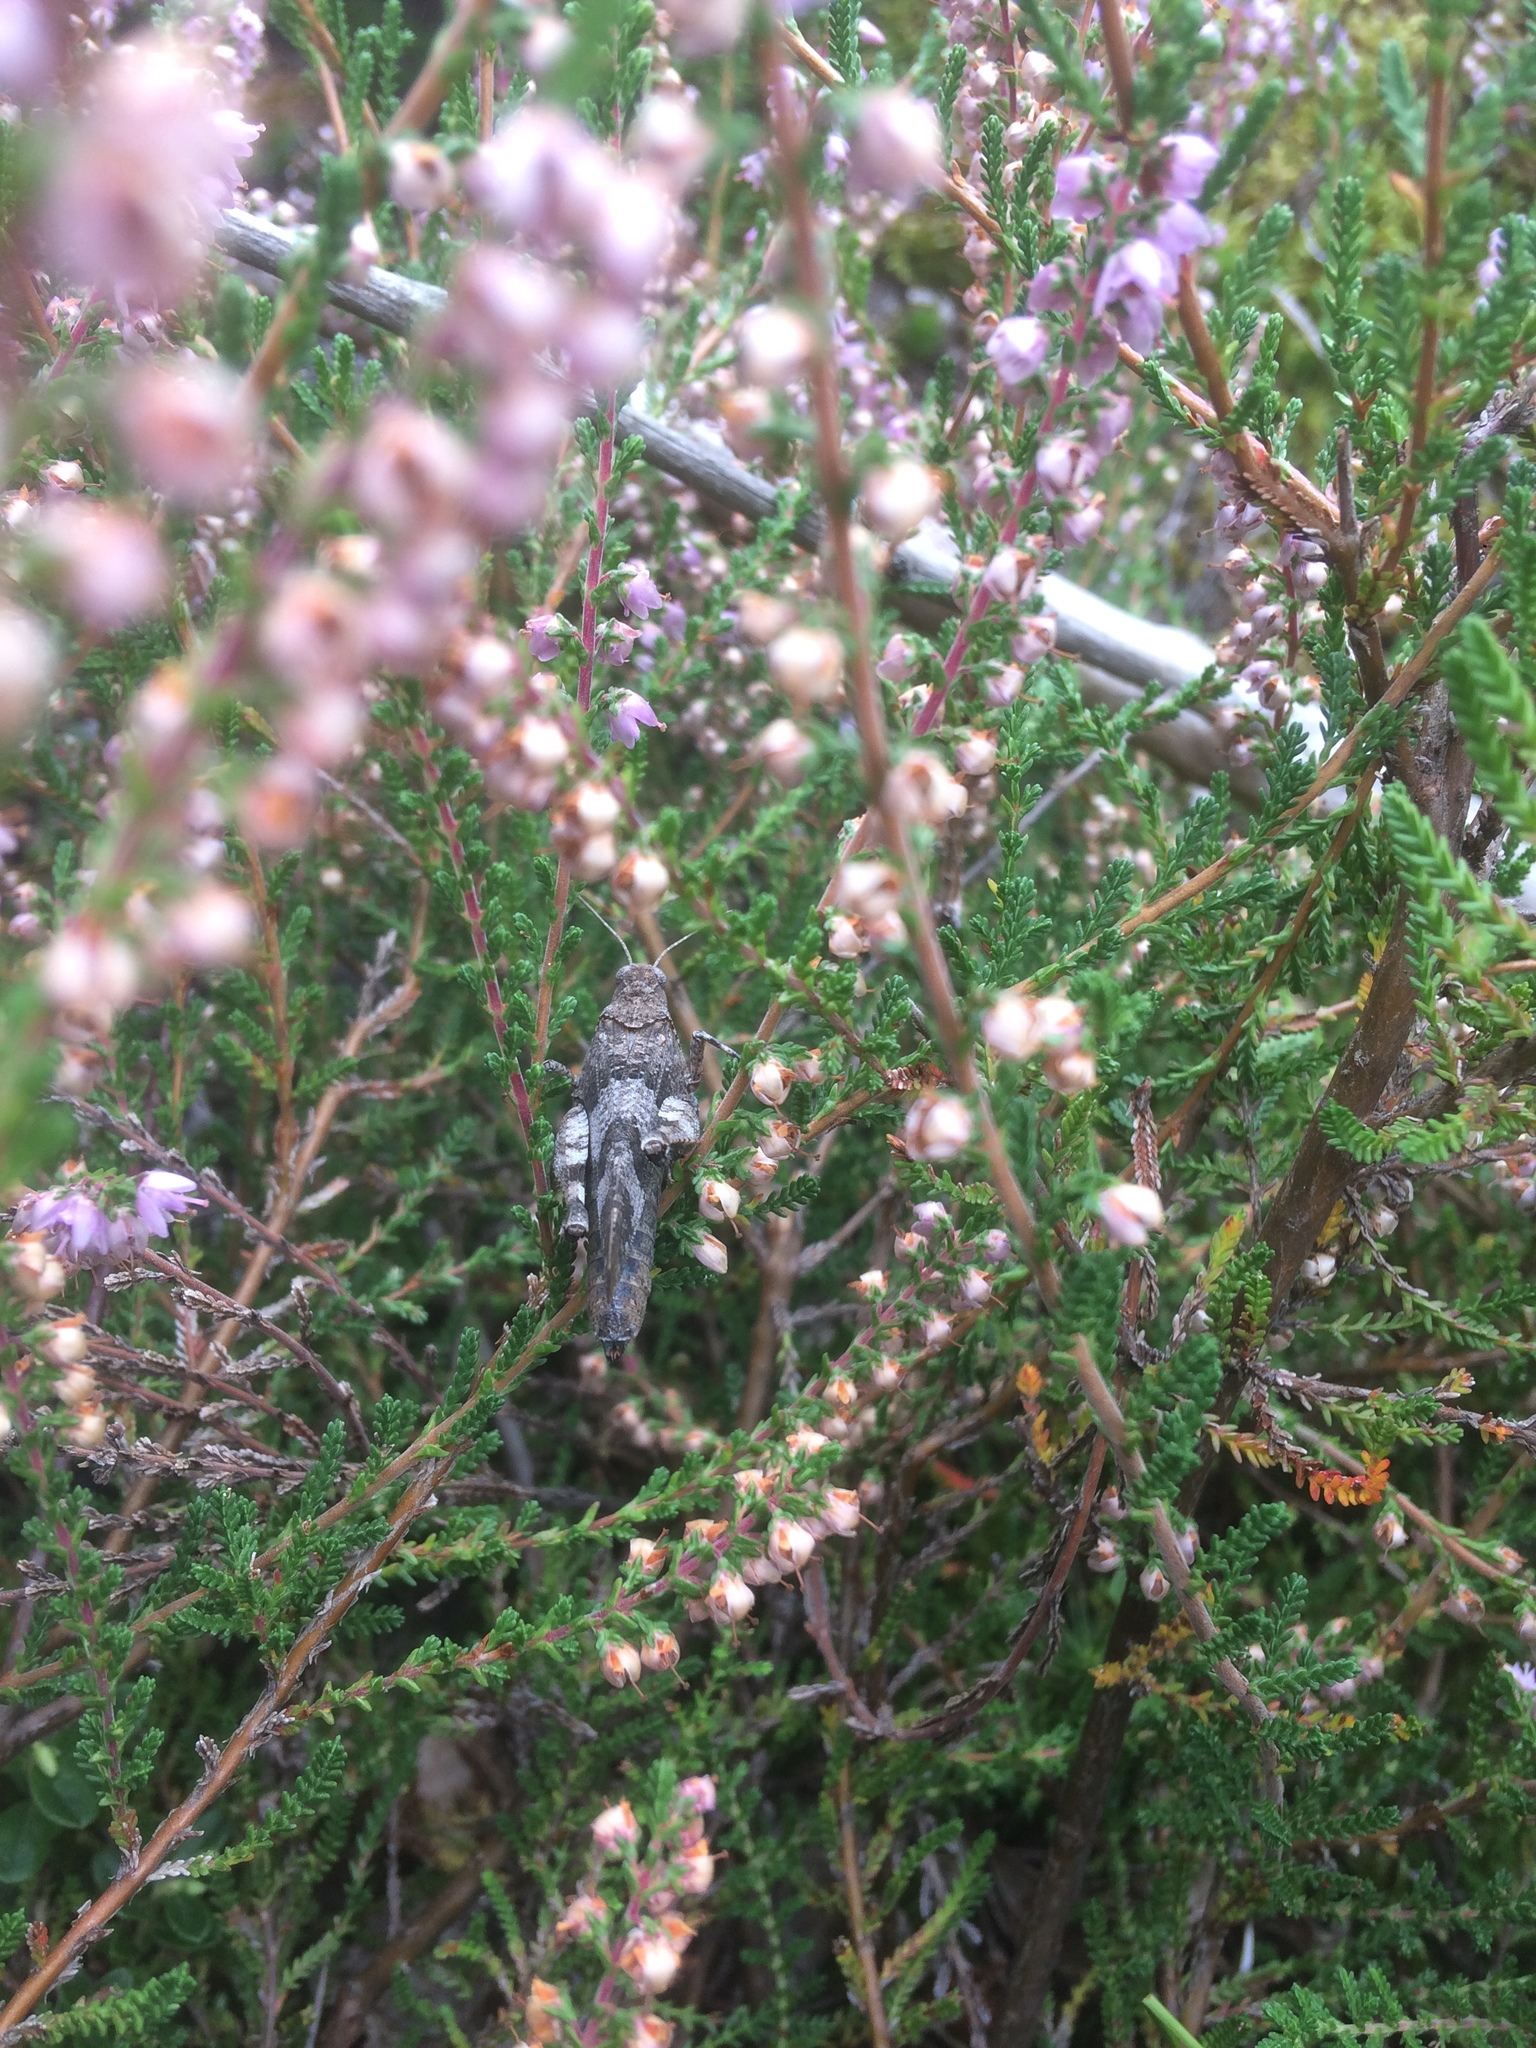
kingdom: Animalia
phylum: Arthropoda
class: Insecta
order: Orthoptera
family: Acrididae
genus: Oedipoda
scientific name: Oedipoda caerulescens
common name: Blue-winged grasshopper
